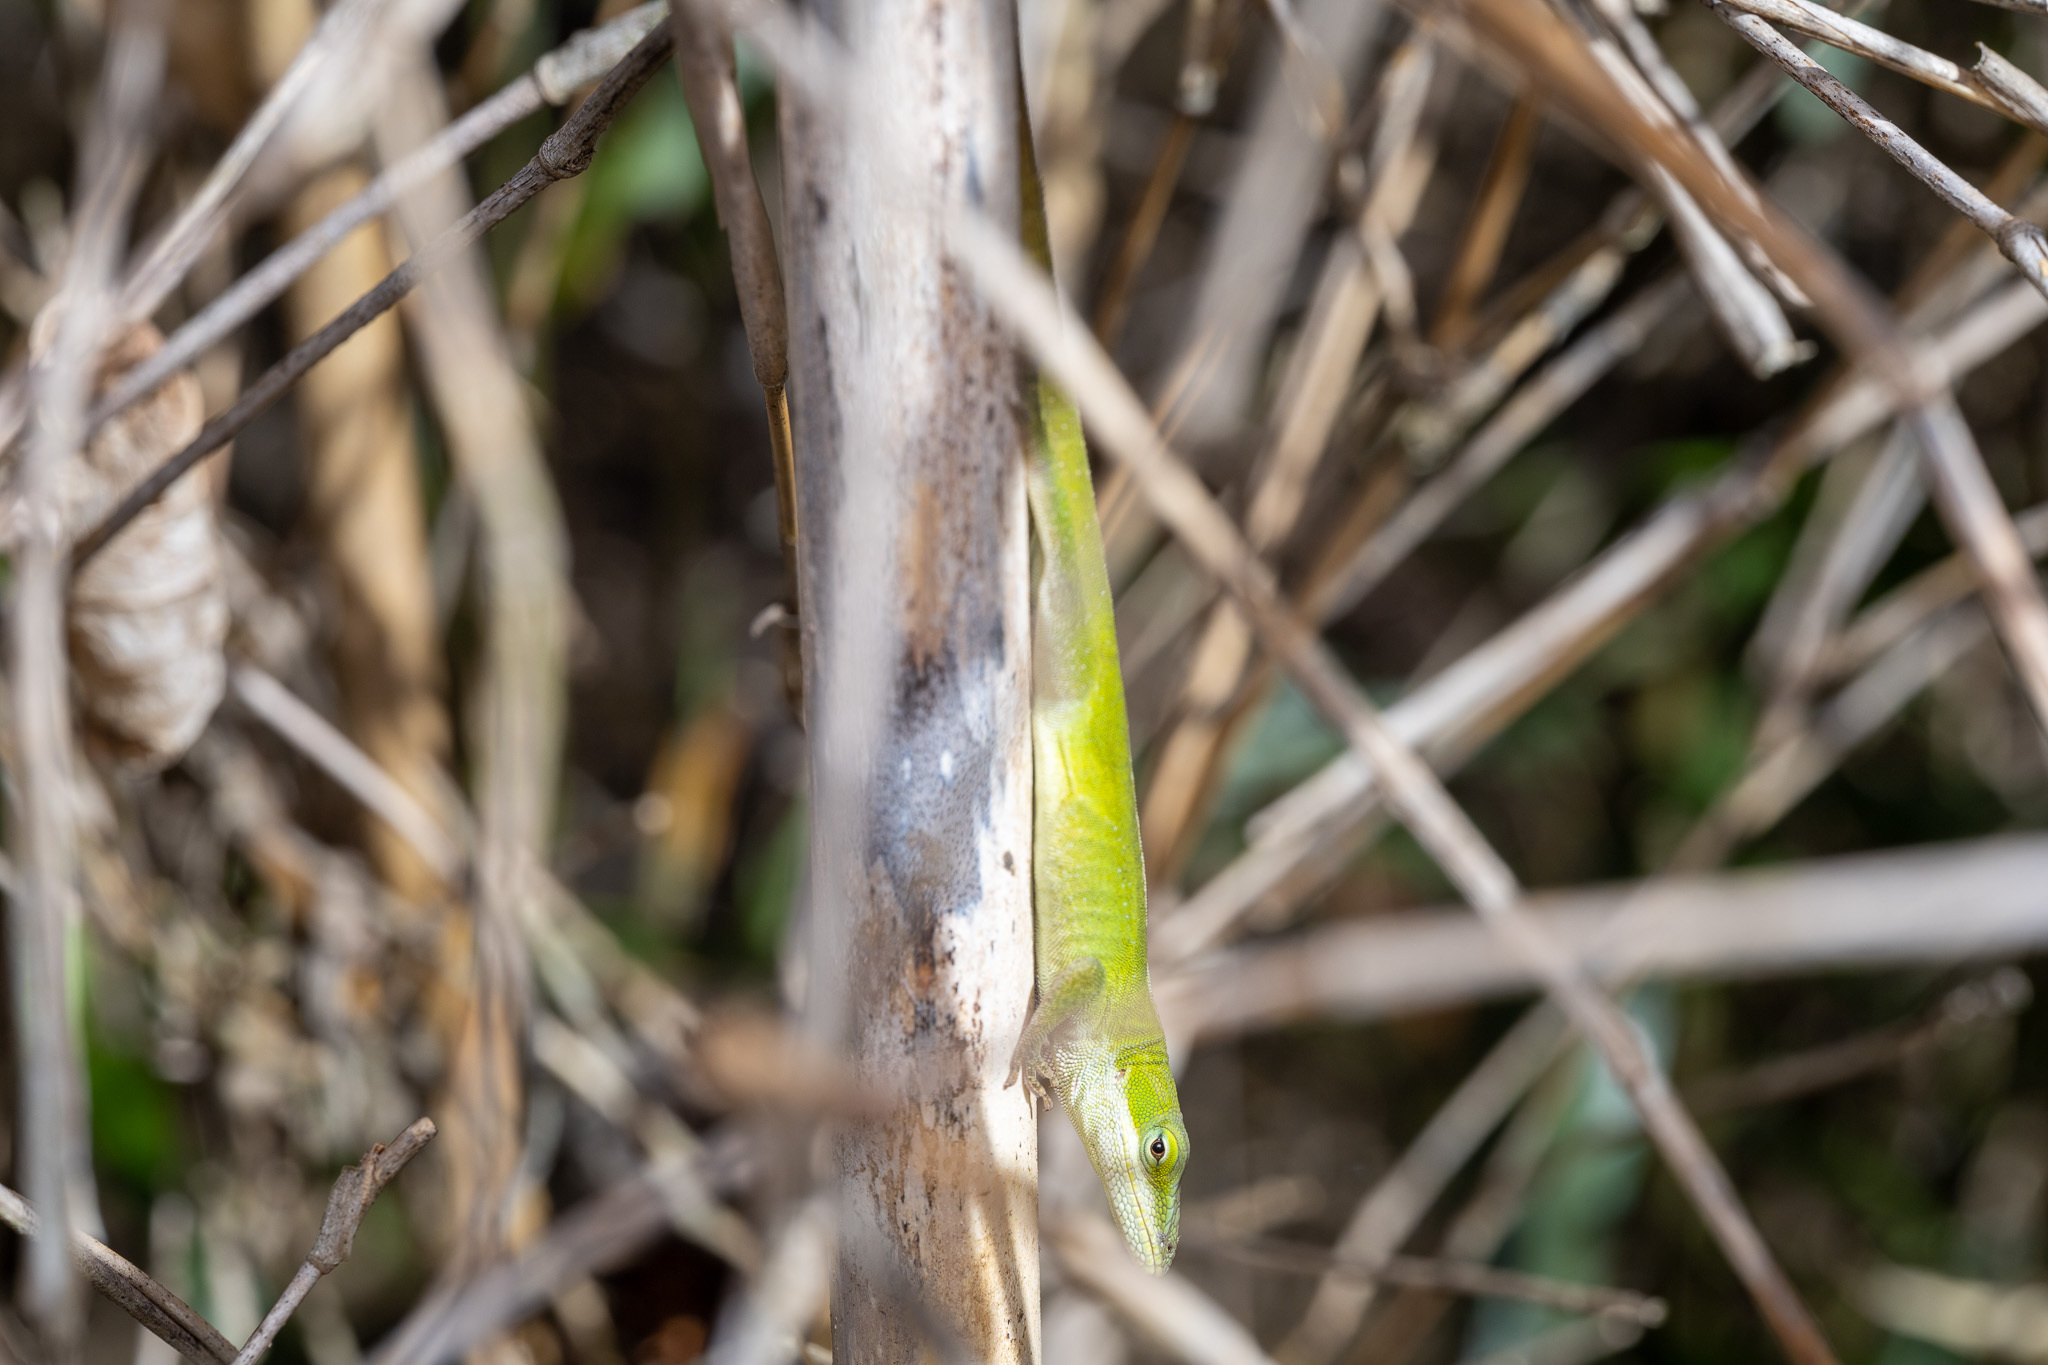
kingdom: Animalia
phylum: Chordata
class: Squamata
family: Dactyloidae
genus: Anolis
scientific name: Anolis carolinensis
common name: Green anole
